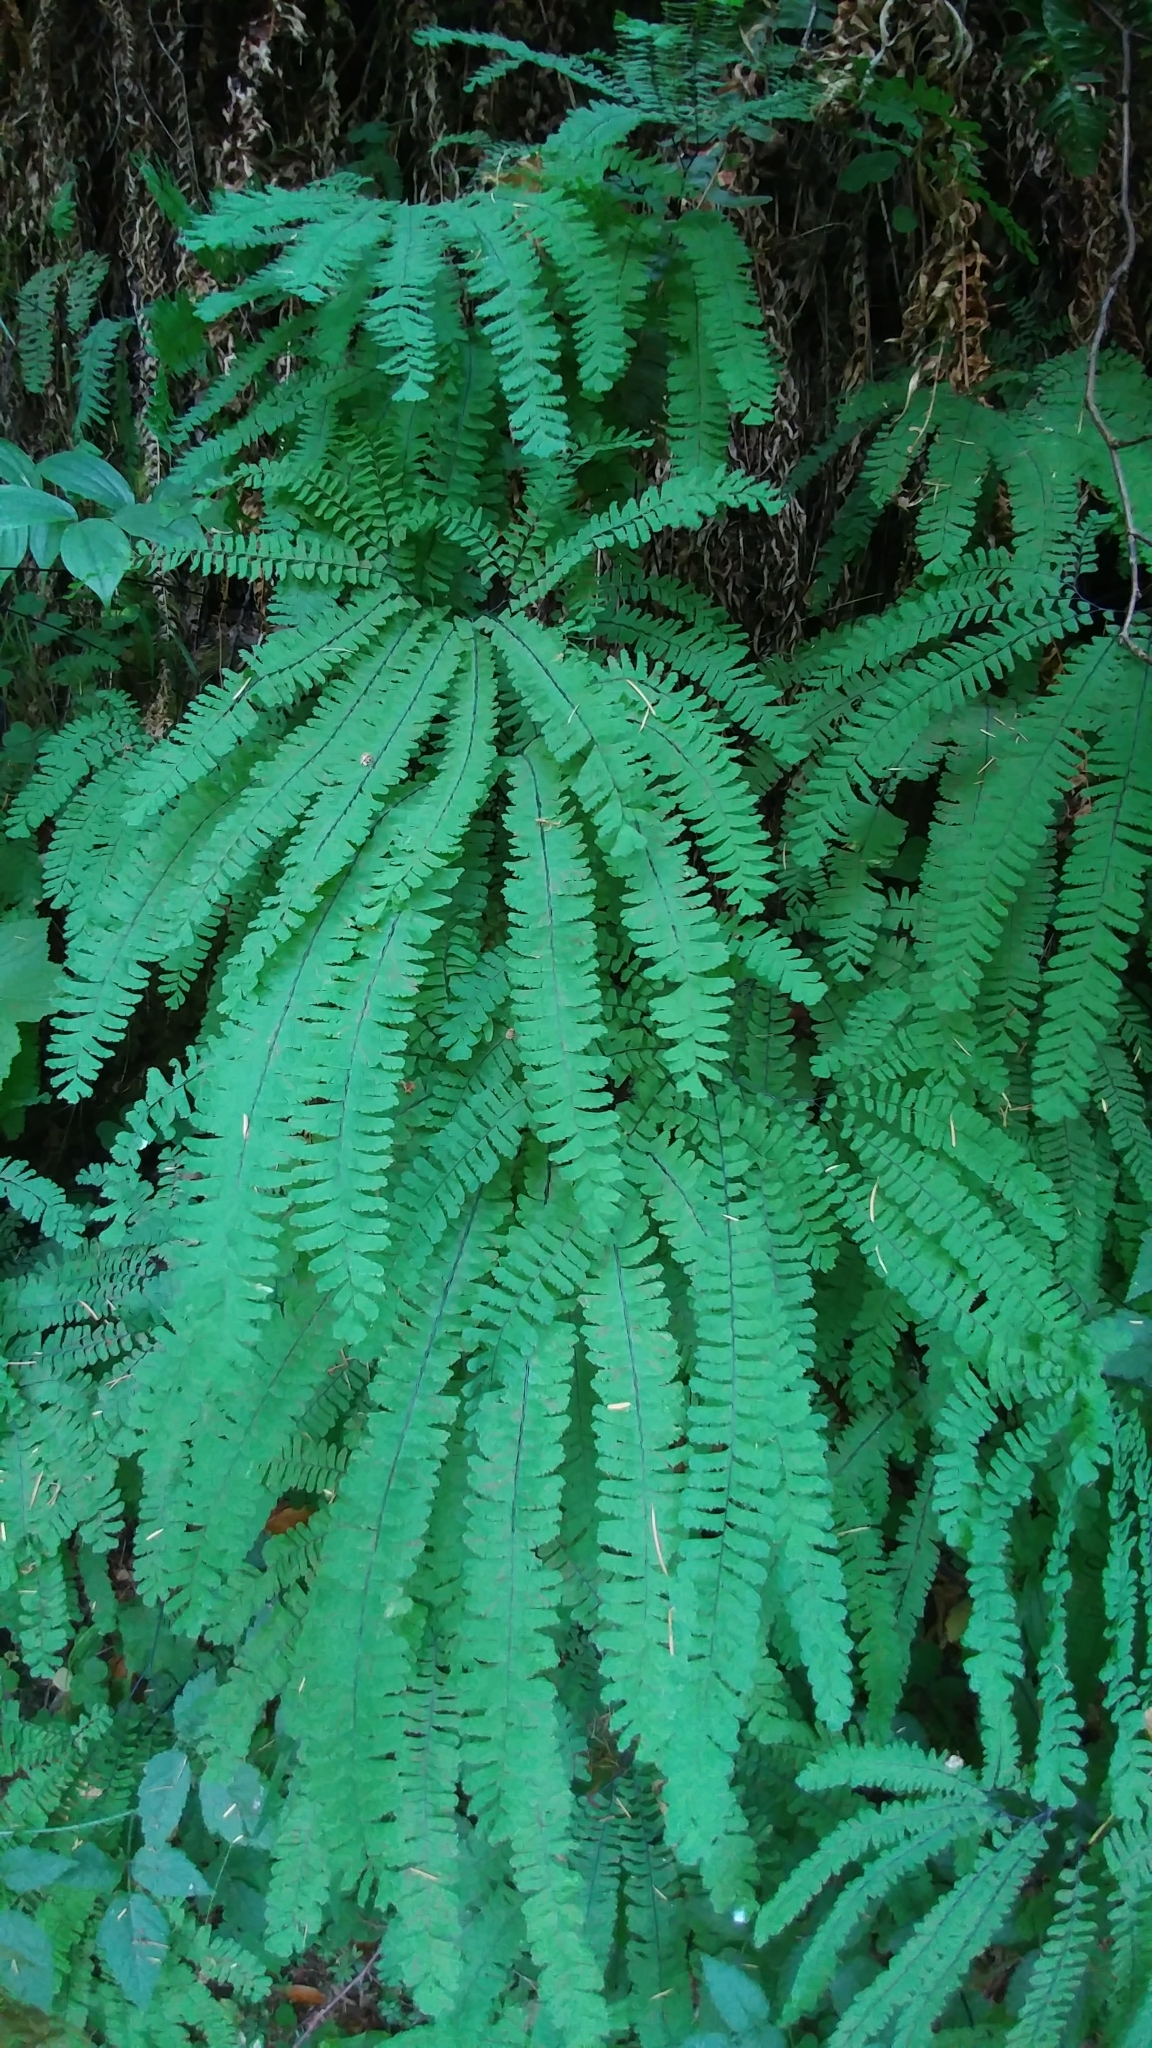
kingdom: Plantae
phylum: Tracheophyta
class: Polypodiopsida
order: Polypodiales
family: Pteridaceae
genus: Adiantum
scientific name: Adiantum aleuticum
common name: Aleutian maidenhair fern
